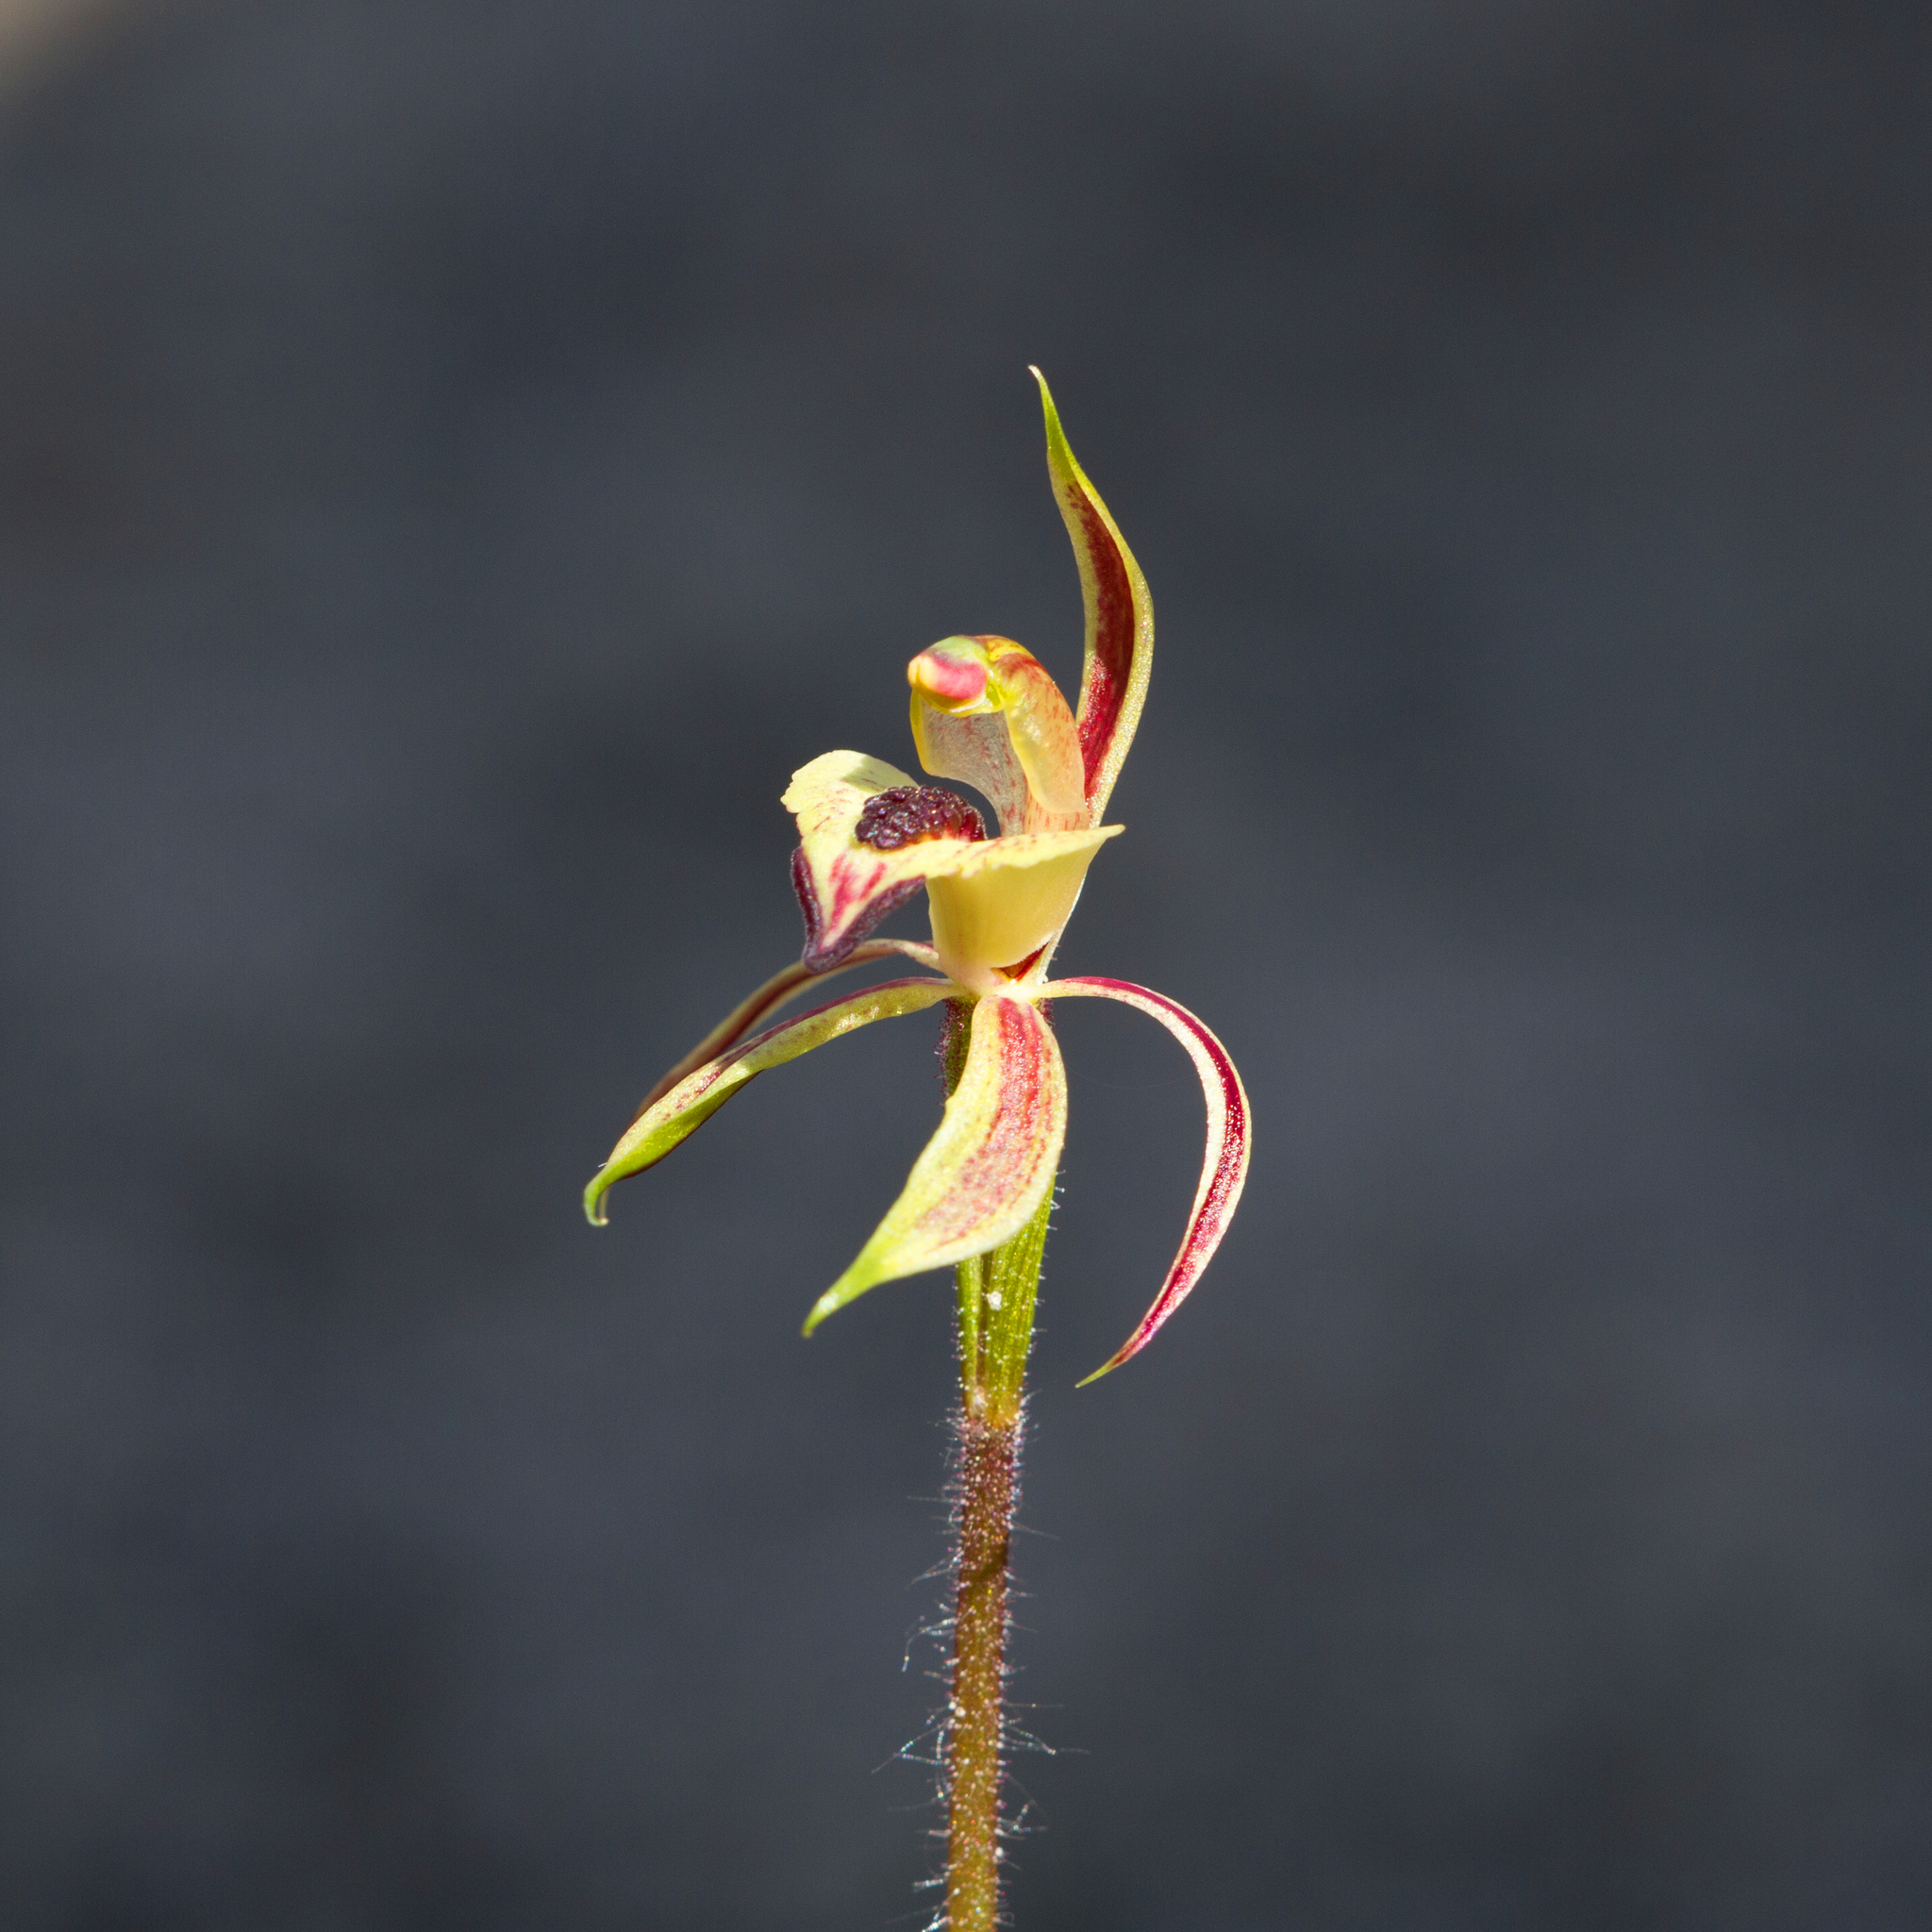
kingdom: Plantae
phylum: Tracheophyta
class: Liliopsida
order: Asparagales
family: Orchidaceae
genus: Caladenia
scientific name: Caladenia cardiochila
